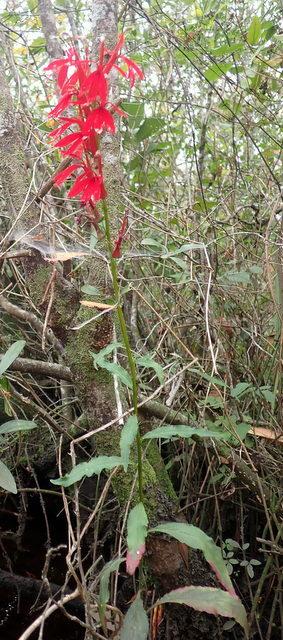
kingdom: Plantae
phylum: Tracheophyta
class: Magnoliopsida
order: Asterales
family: Campanulaceae
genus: Lobelia
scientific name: Lobelia cardinalis
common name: Cardinal flower
